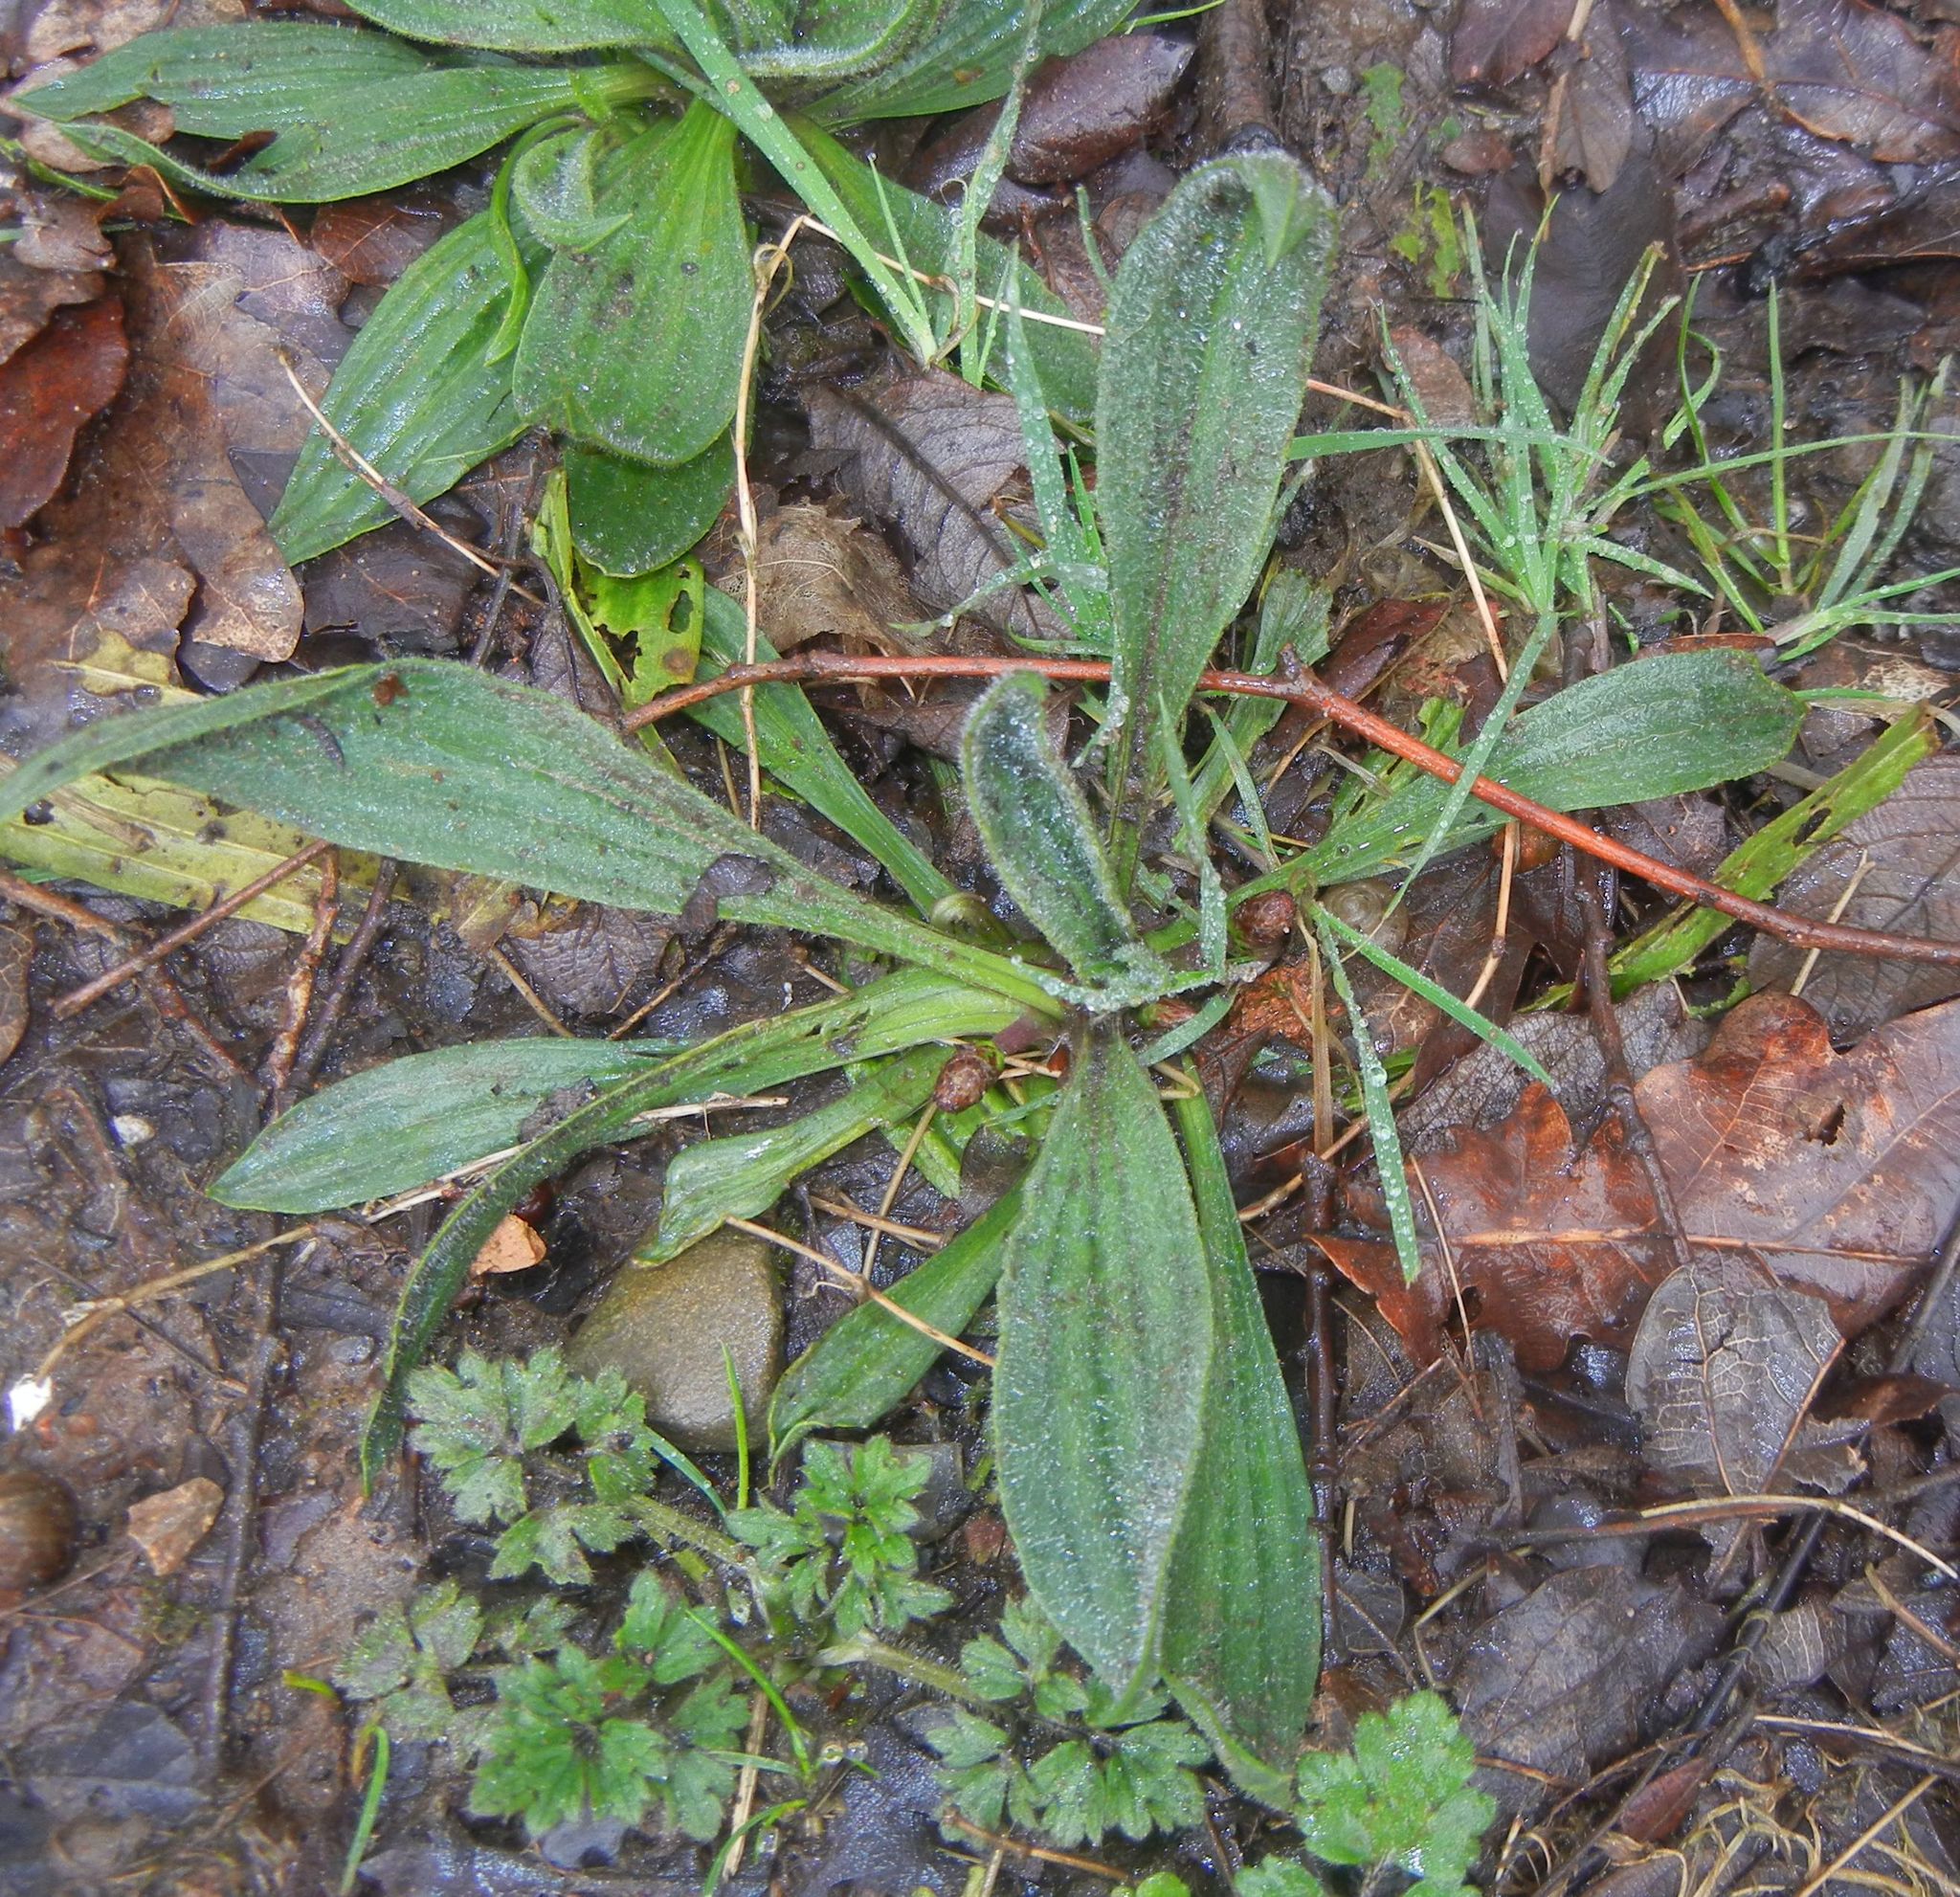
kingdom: Plantae
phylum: Tracheophyta
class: Magnoliopsida
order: Lamiales
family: Plantaginaceae
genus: Plantago
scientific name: Plantago lanceolata
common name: Ribwort plantain
